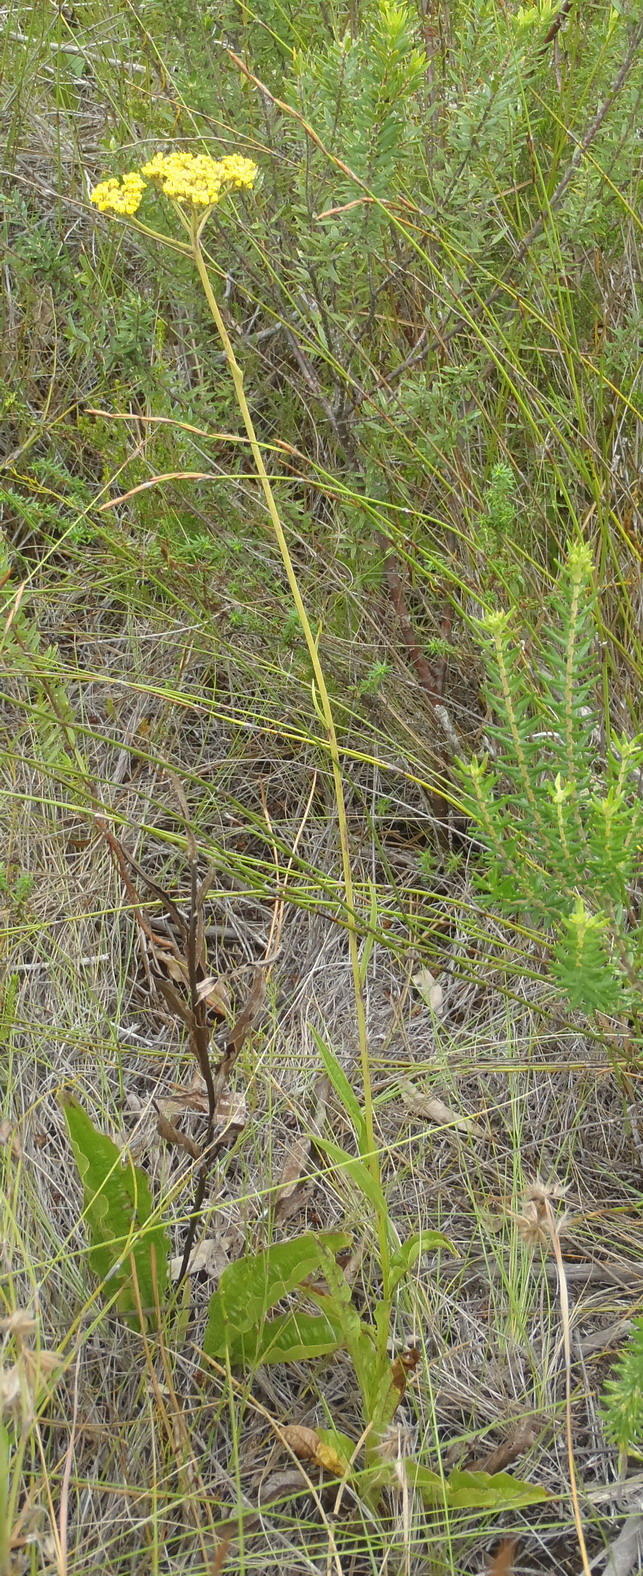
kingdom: Plantae
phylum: Tracheophyta
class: Magnoliopsida
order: Asterales
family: Asteraceae
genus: Helichrysum
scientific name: Helichrysum nudifolium
